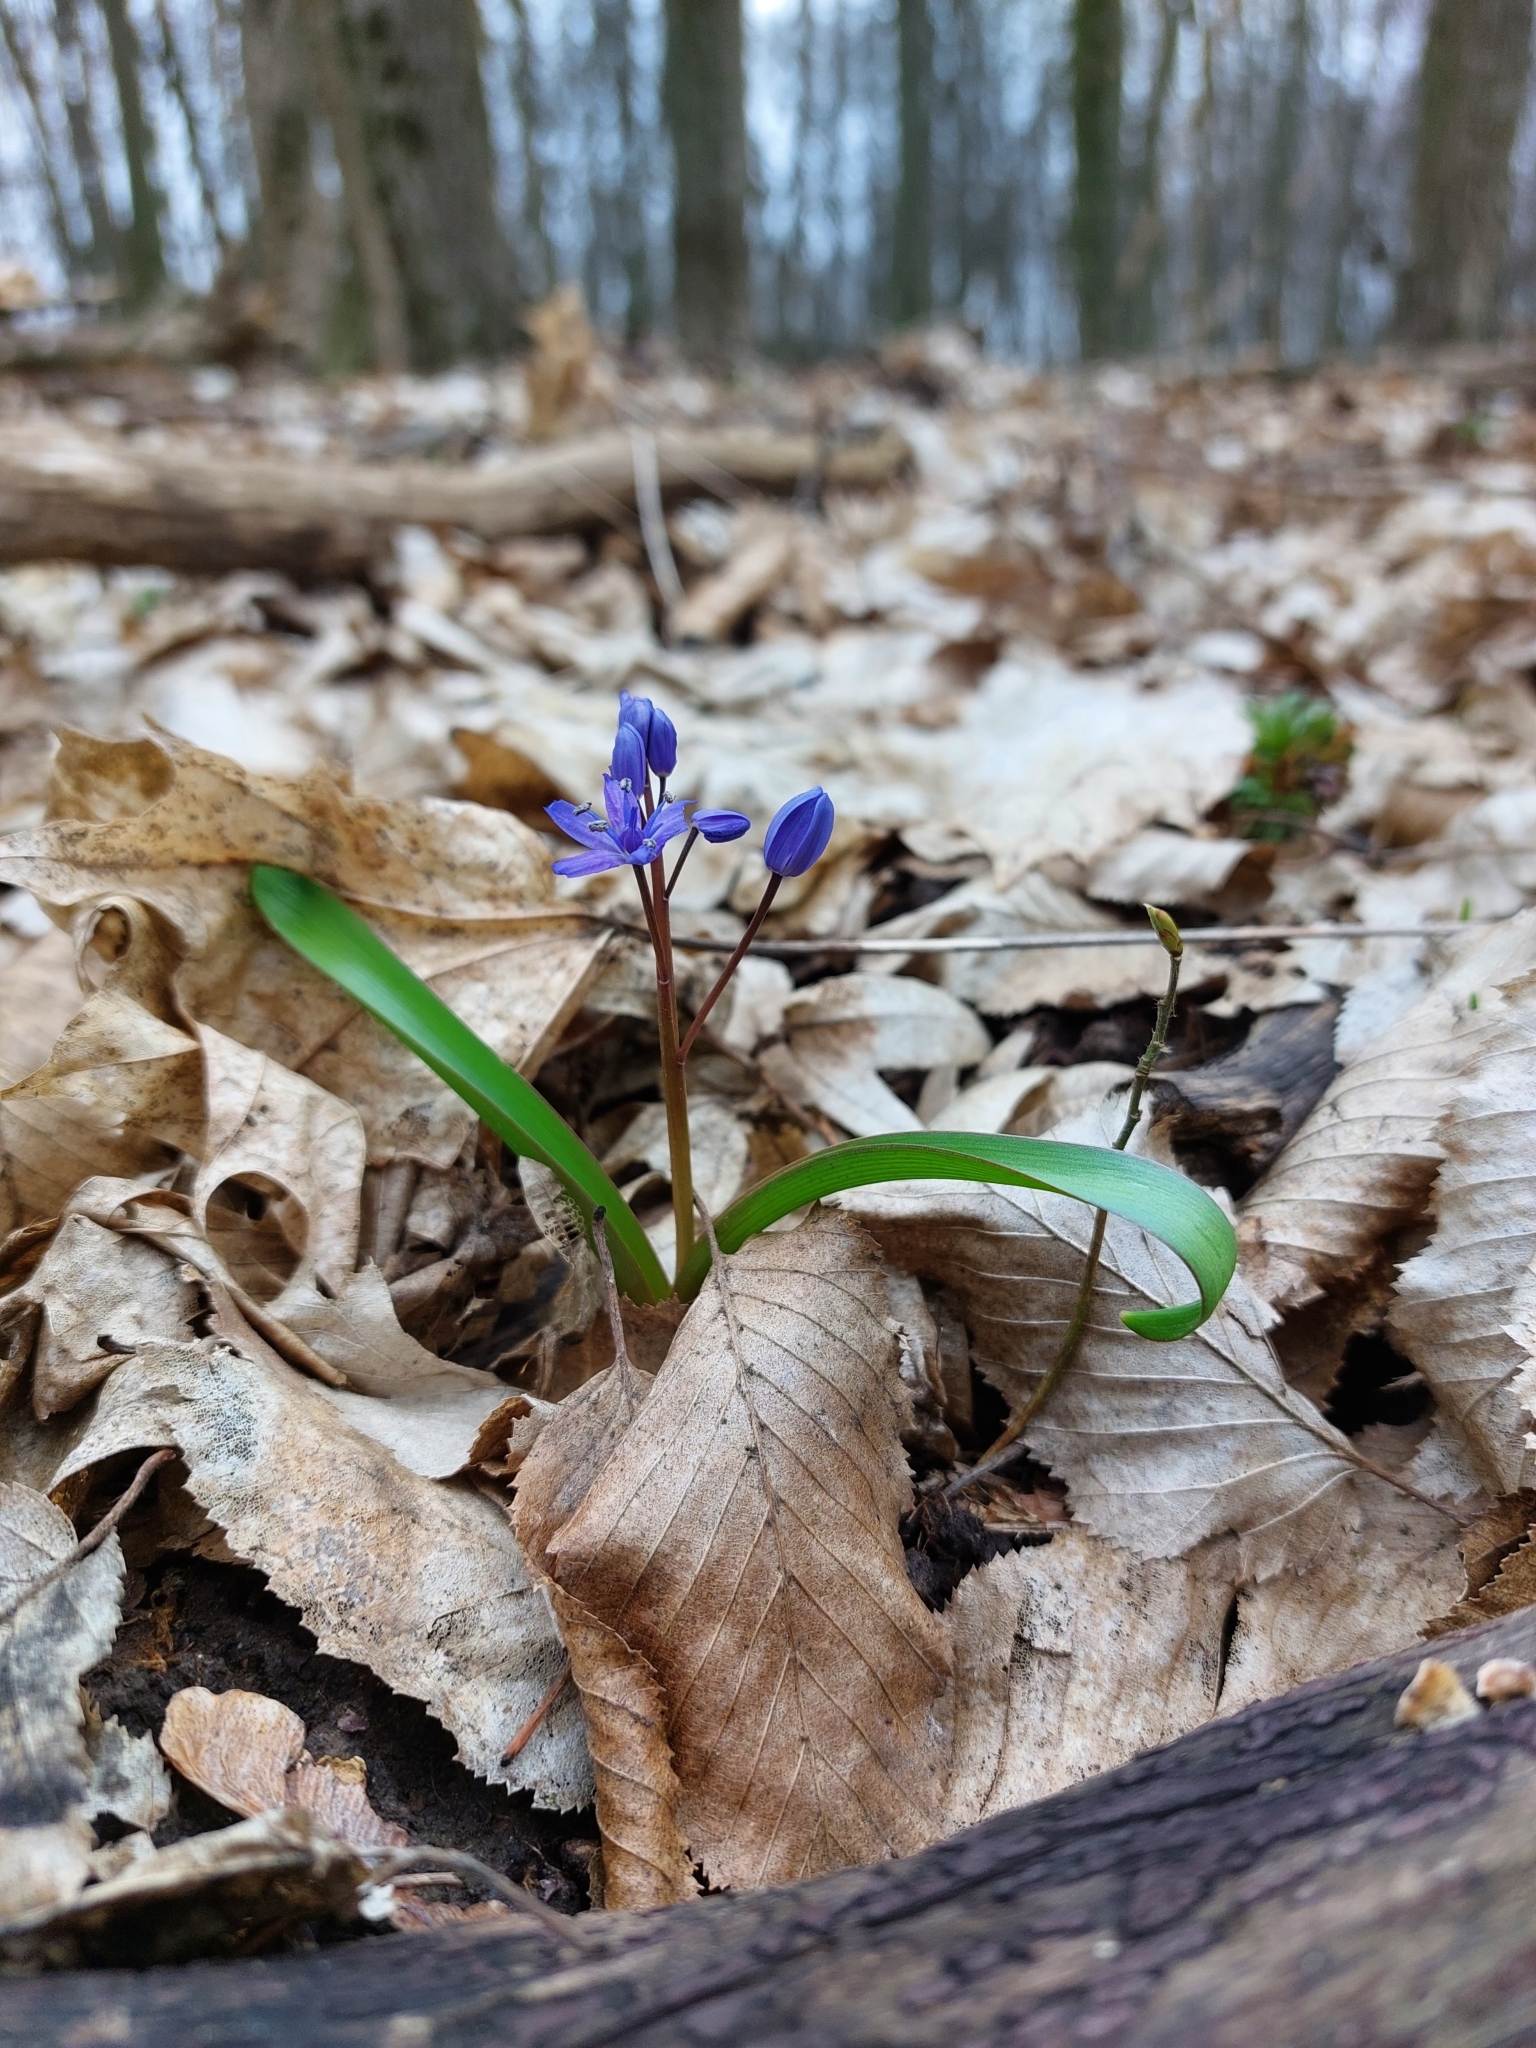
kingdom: Plantae
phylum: Tracheophyta
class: Liliopsida
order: Asparagales
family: Asparagaceae
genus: Scilla
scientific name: Scilla bifolia
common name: Alpine squill
